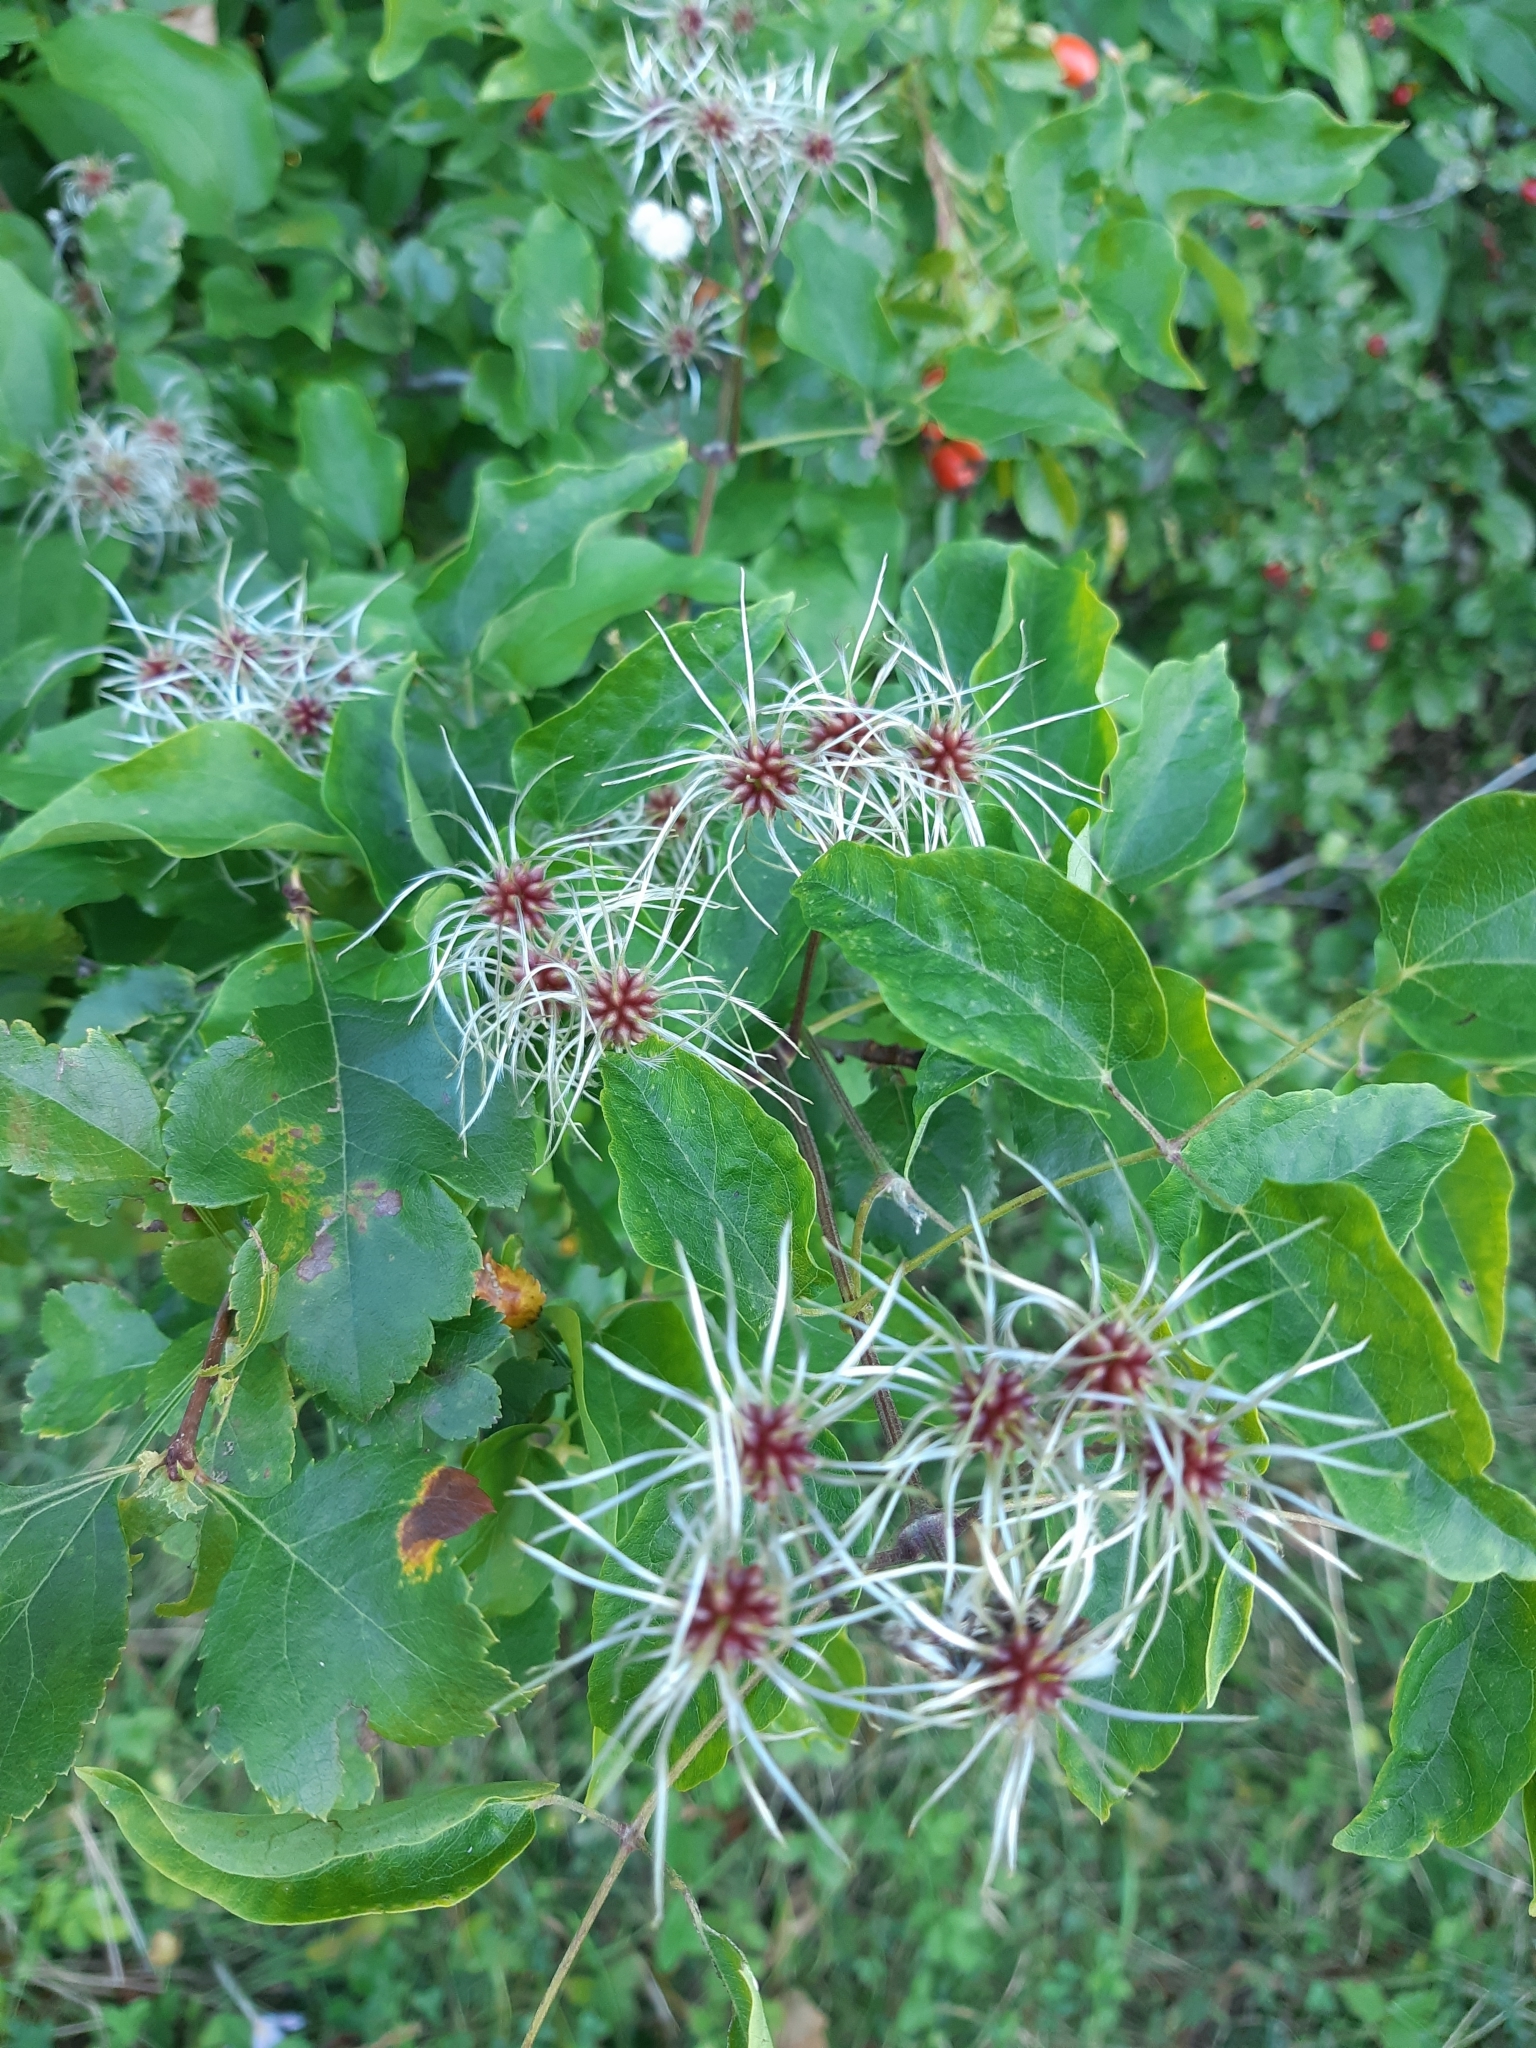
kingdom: Plantae
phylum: Tracheophyta
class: Magnoliopsida
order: Ranunculales
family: Ranunculaceae
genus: Clematis
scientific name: Clematis vitalba
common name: Evergreen clematis
